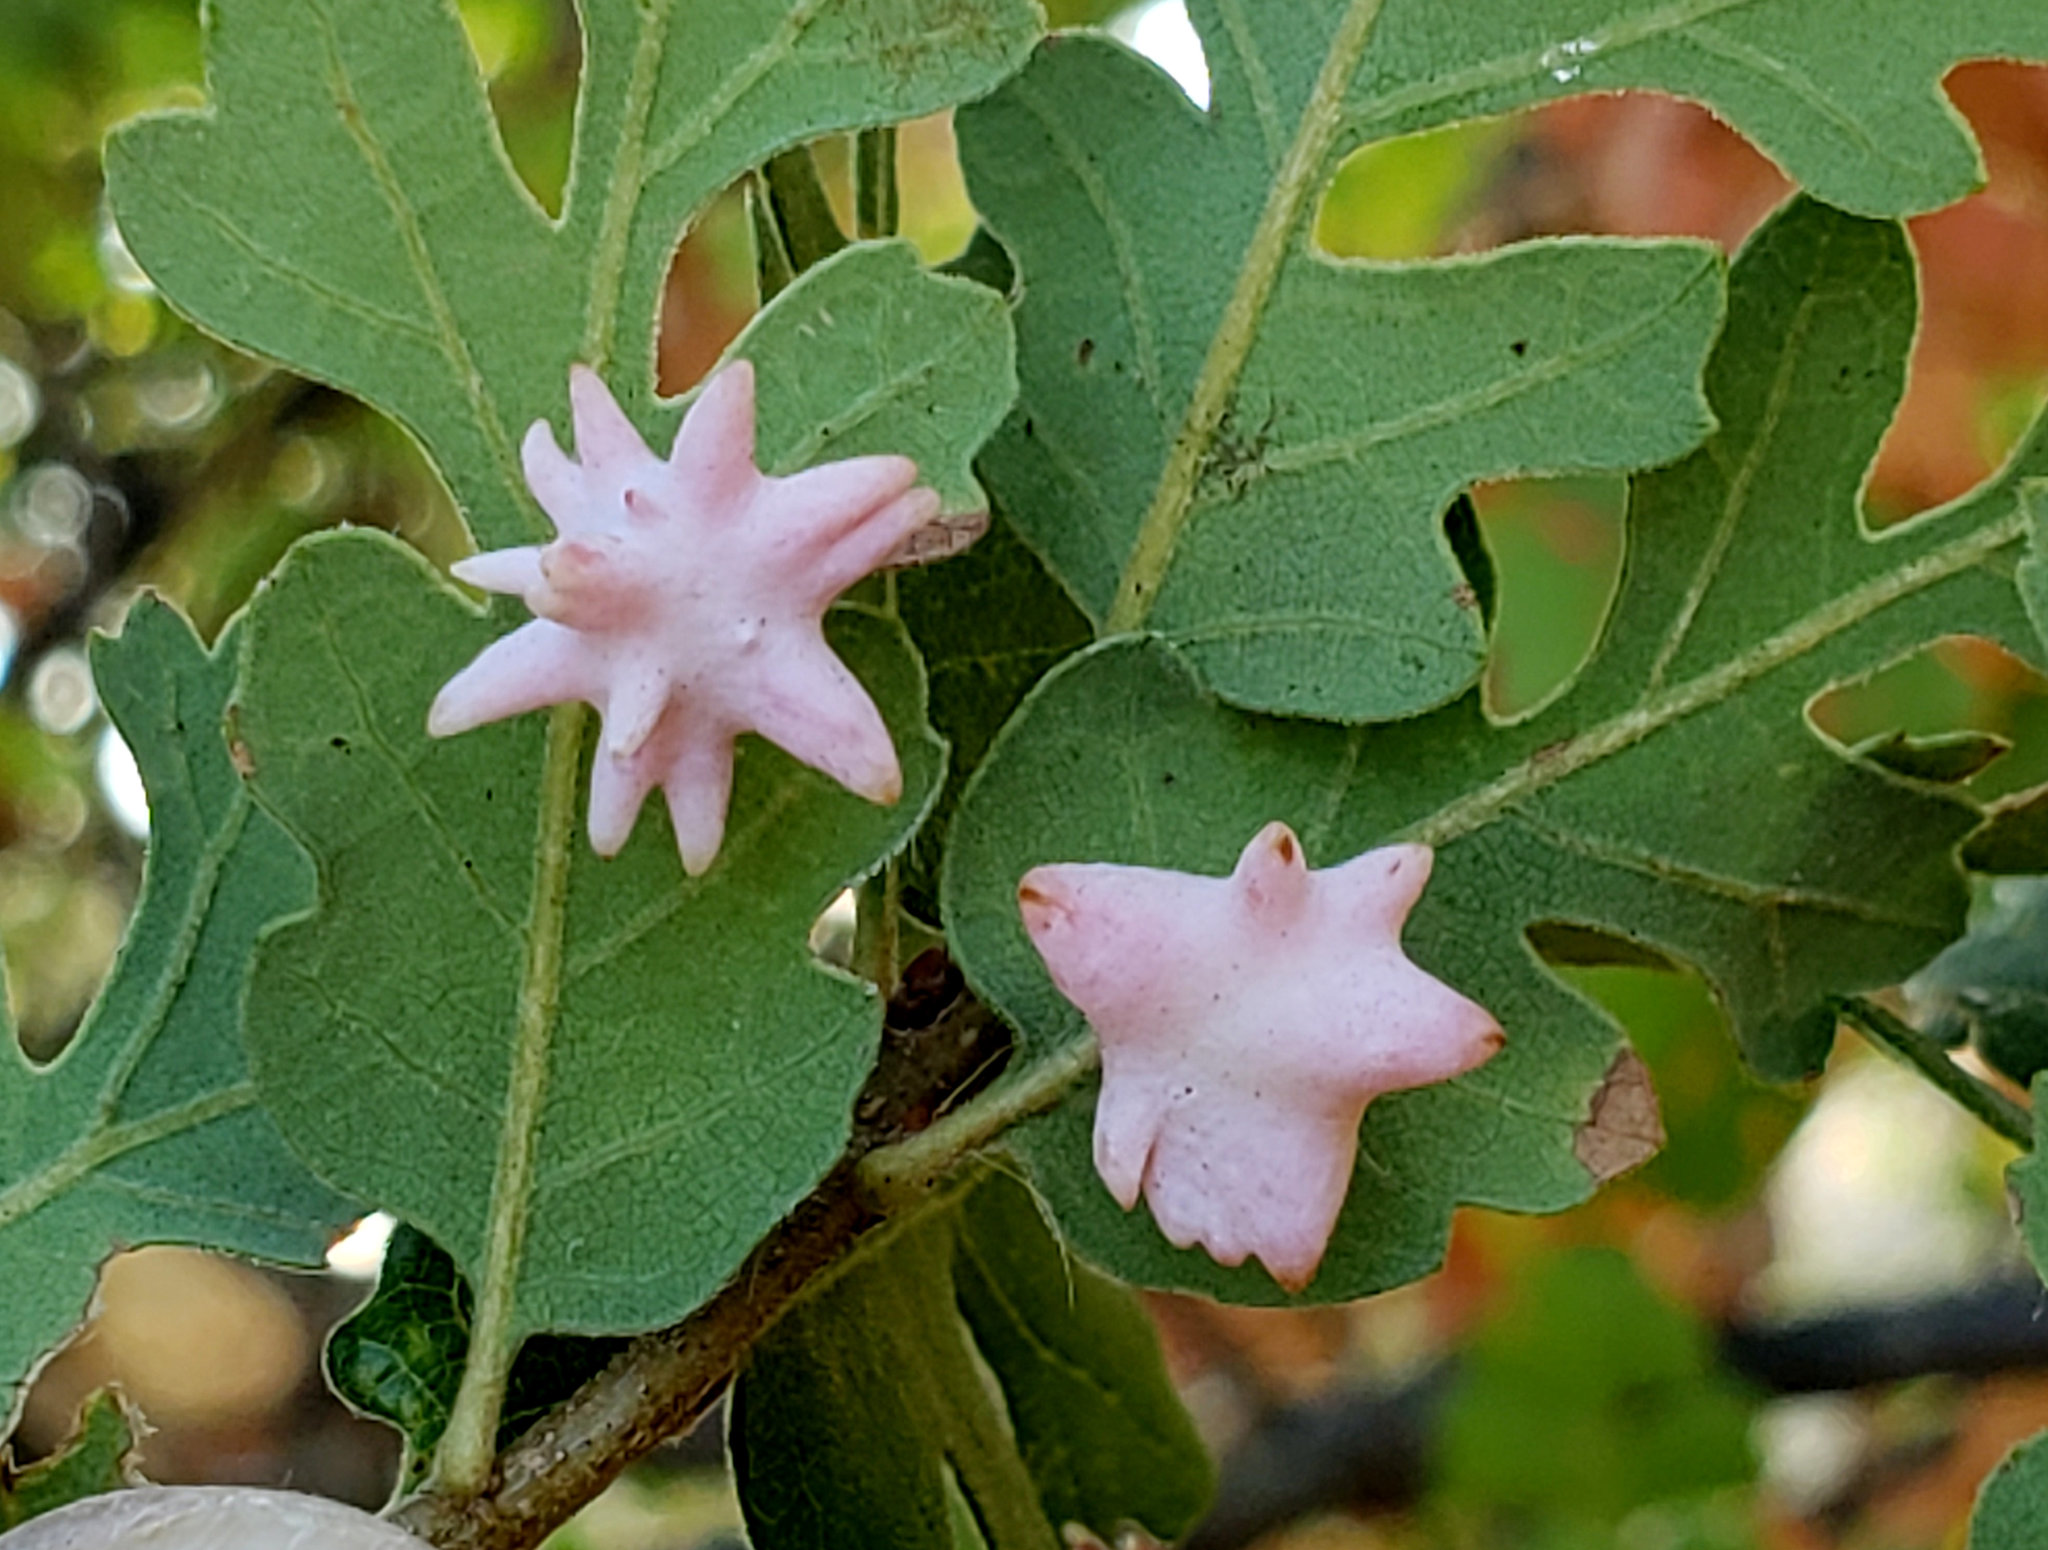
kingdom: Animalia
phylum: Arthropoda
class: Insecta
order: Hymenoptera
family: Cynipidae
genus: Cynips
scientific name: Cynips douglasi
